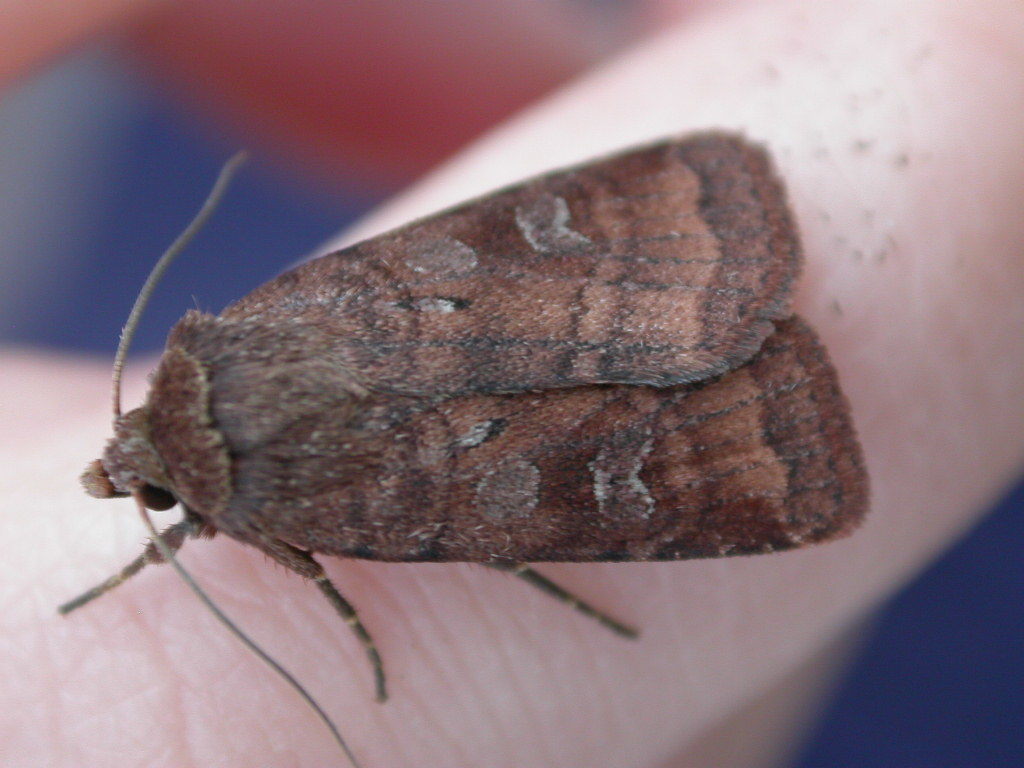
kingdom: Animalia
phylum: Arthropoda
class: Insecta
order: Lepidoptera
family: Noctuidae
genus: Diarsia
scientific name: Diarsia rubi
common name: Small square-spot
